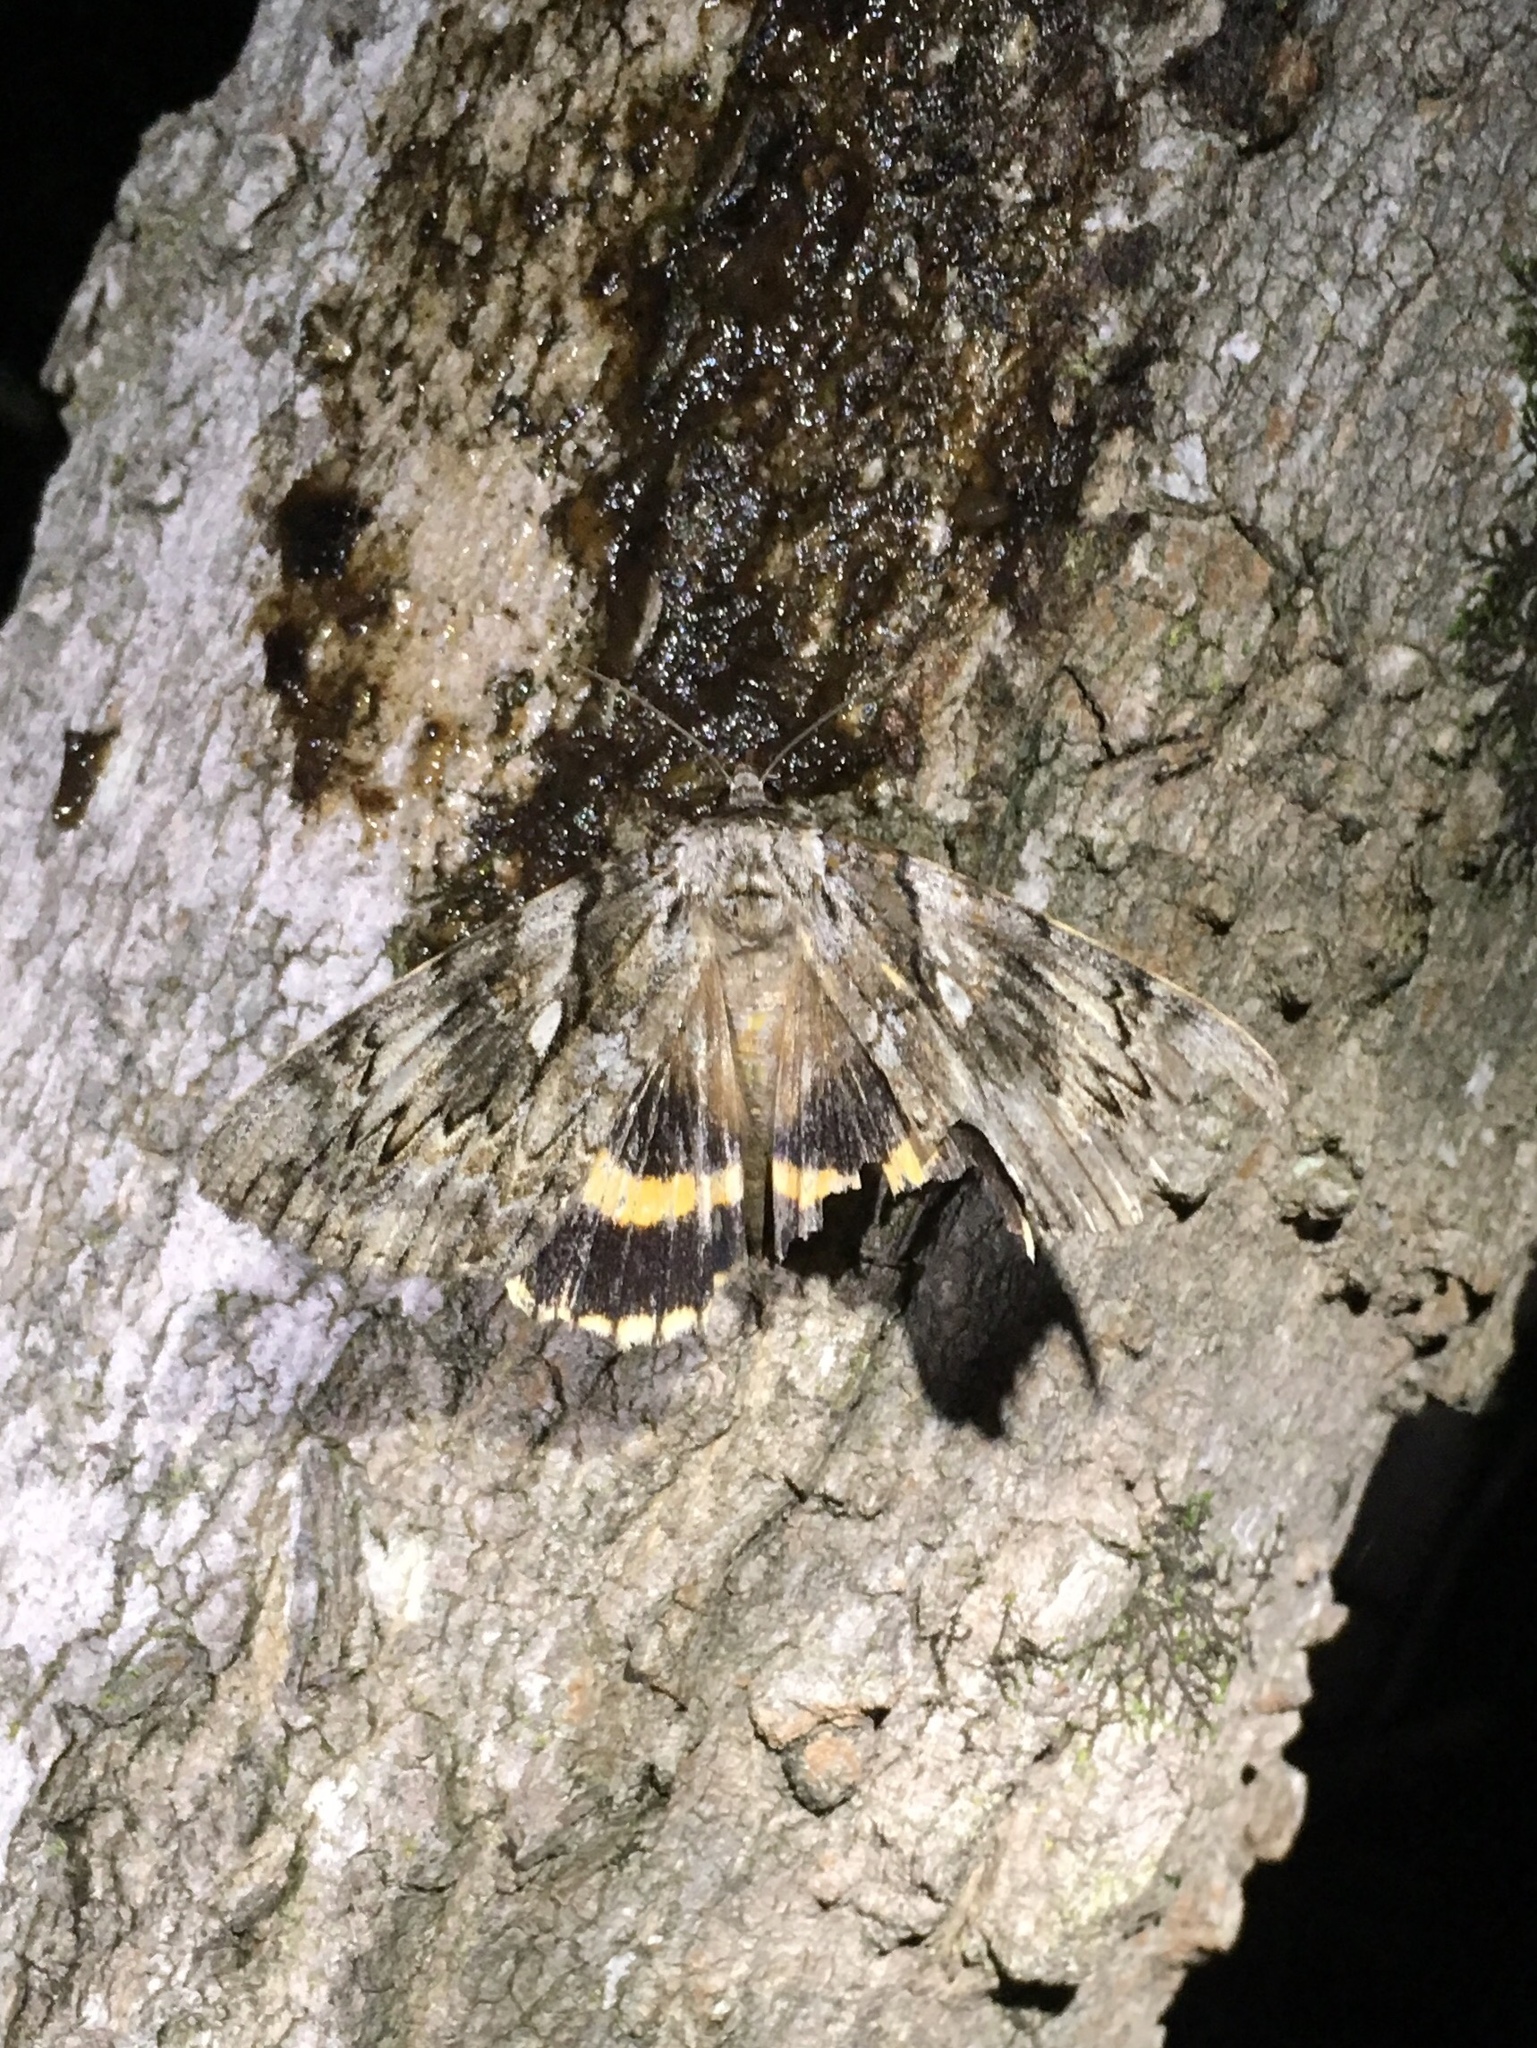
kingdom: Animalia
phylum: Arthropoda
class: Insecta
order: Lepidoptera
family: Erebidae
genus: Catocala
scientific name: Catocala cerogama
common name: Yellow banded underwing
